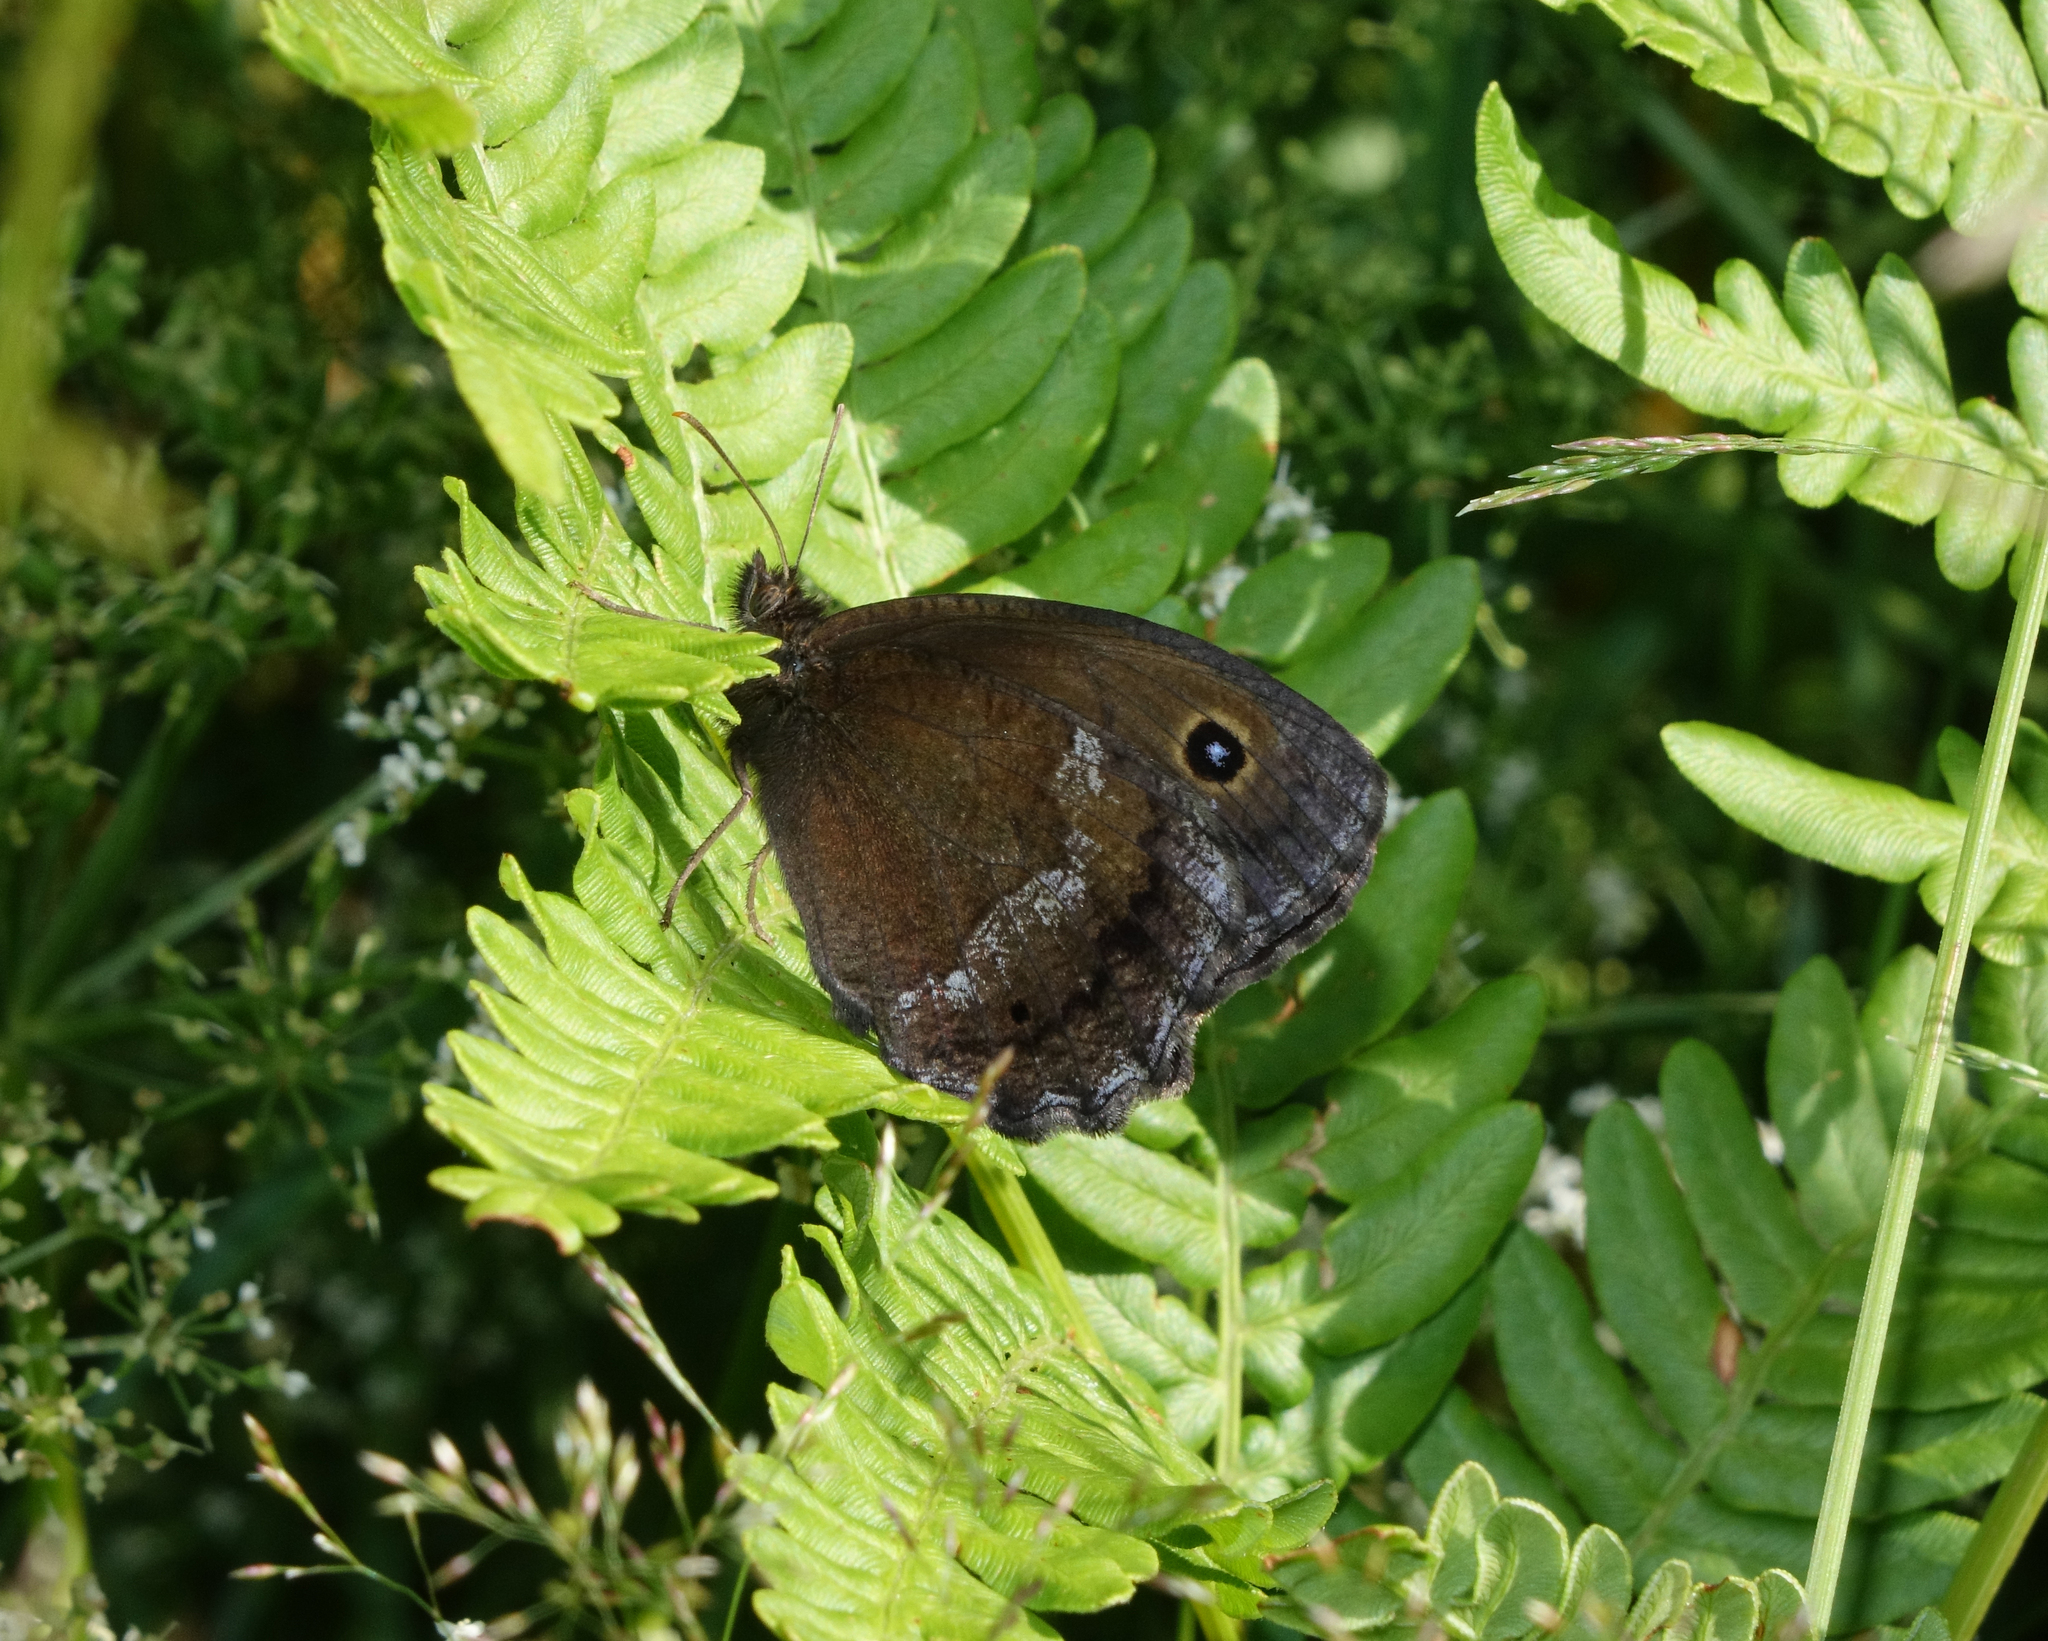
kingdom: Plantae
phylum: Tracheophyta
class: Polypodiopsida
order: Polypodiales
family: Dennstaedtiaceae
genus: Pteridium
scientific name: Pteridium aquilinum
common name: Bracken
